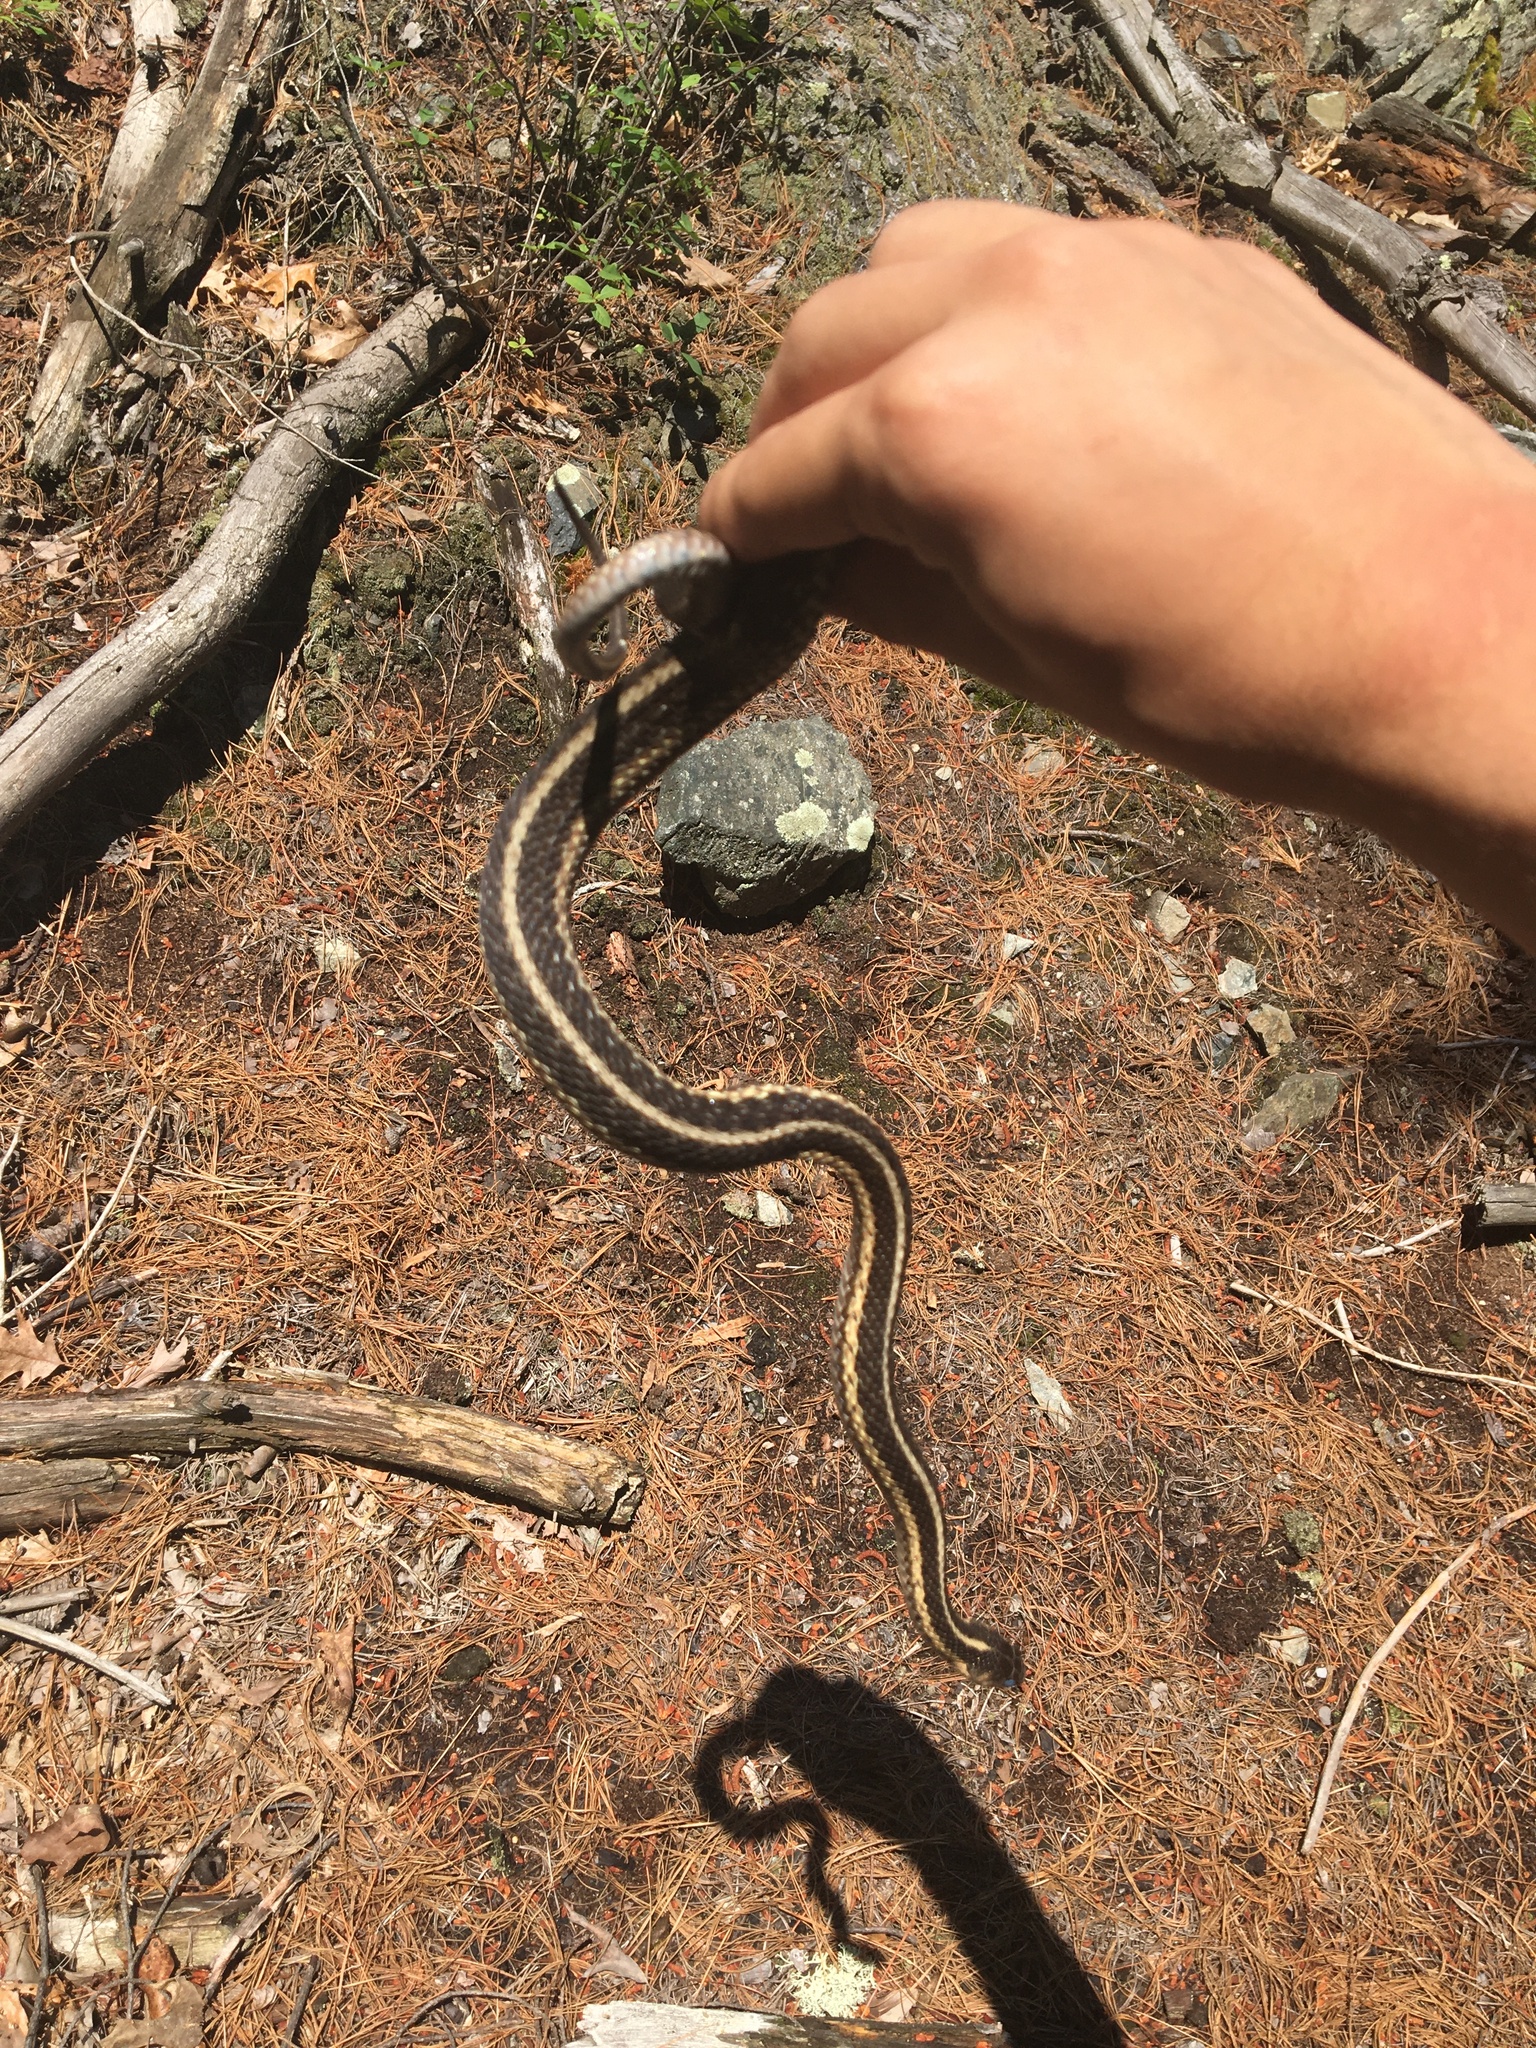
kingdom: Animalia
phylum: Chordata
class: Squamata
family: Colubridae
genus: Thamnophis
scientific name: Thamnophis sirtalis
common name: Common garter snake
